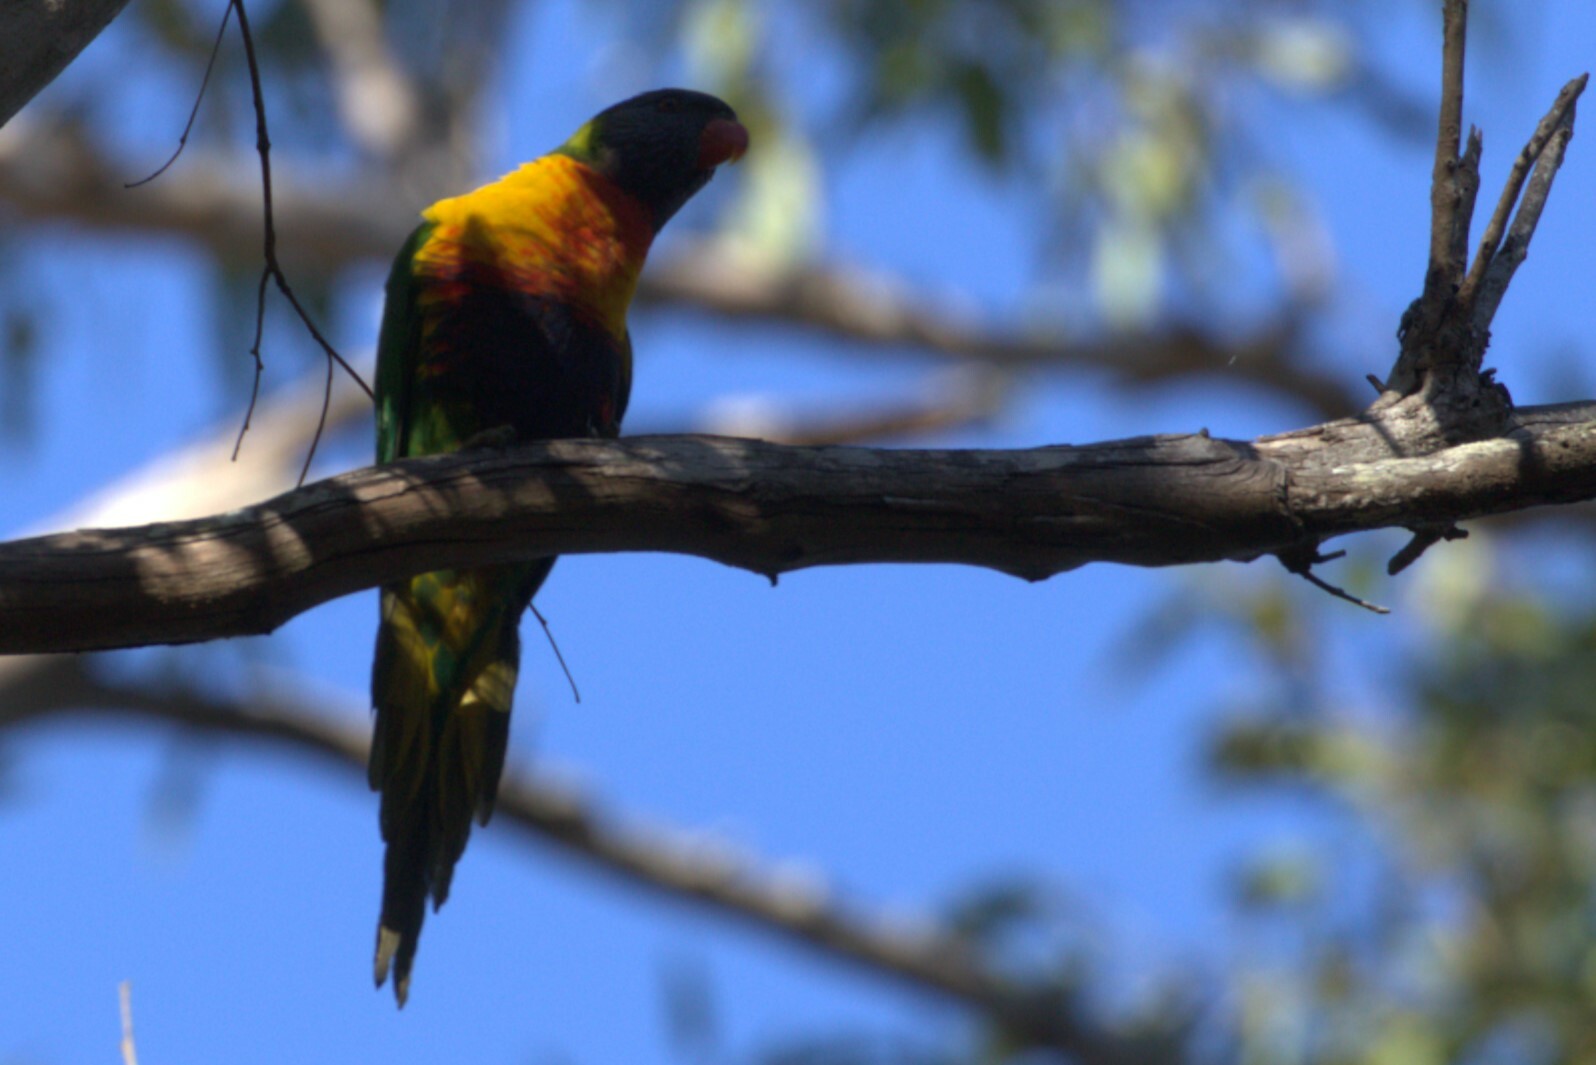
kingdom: Animalia
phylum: Chordata
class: Aves
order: Psittaciformes
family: Psittacidae
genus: Trichoglossus
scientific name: Trichoglossus haematodus
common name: Coconut lorikeet
